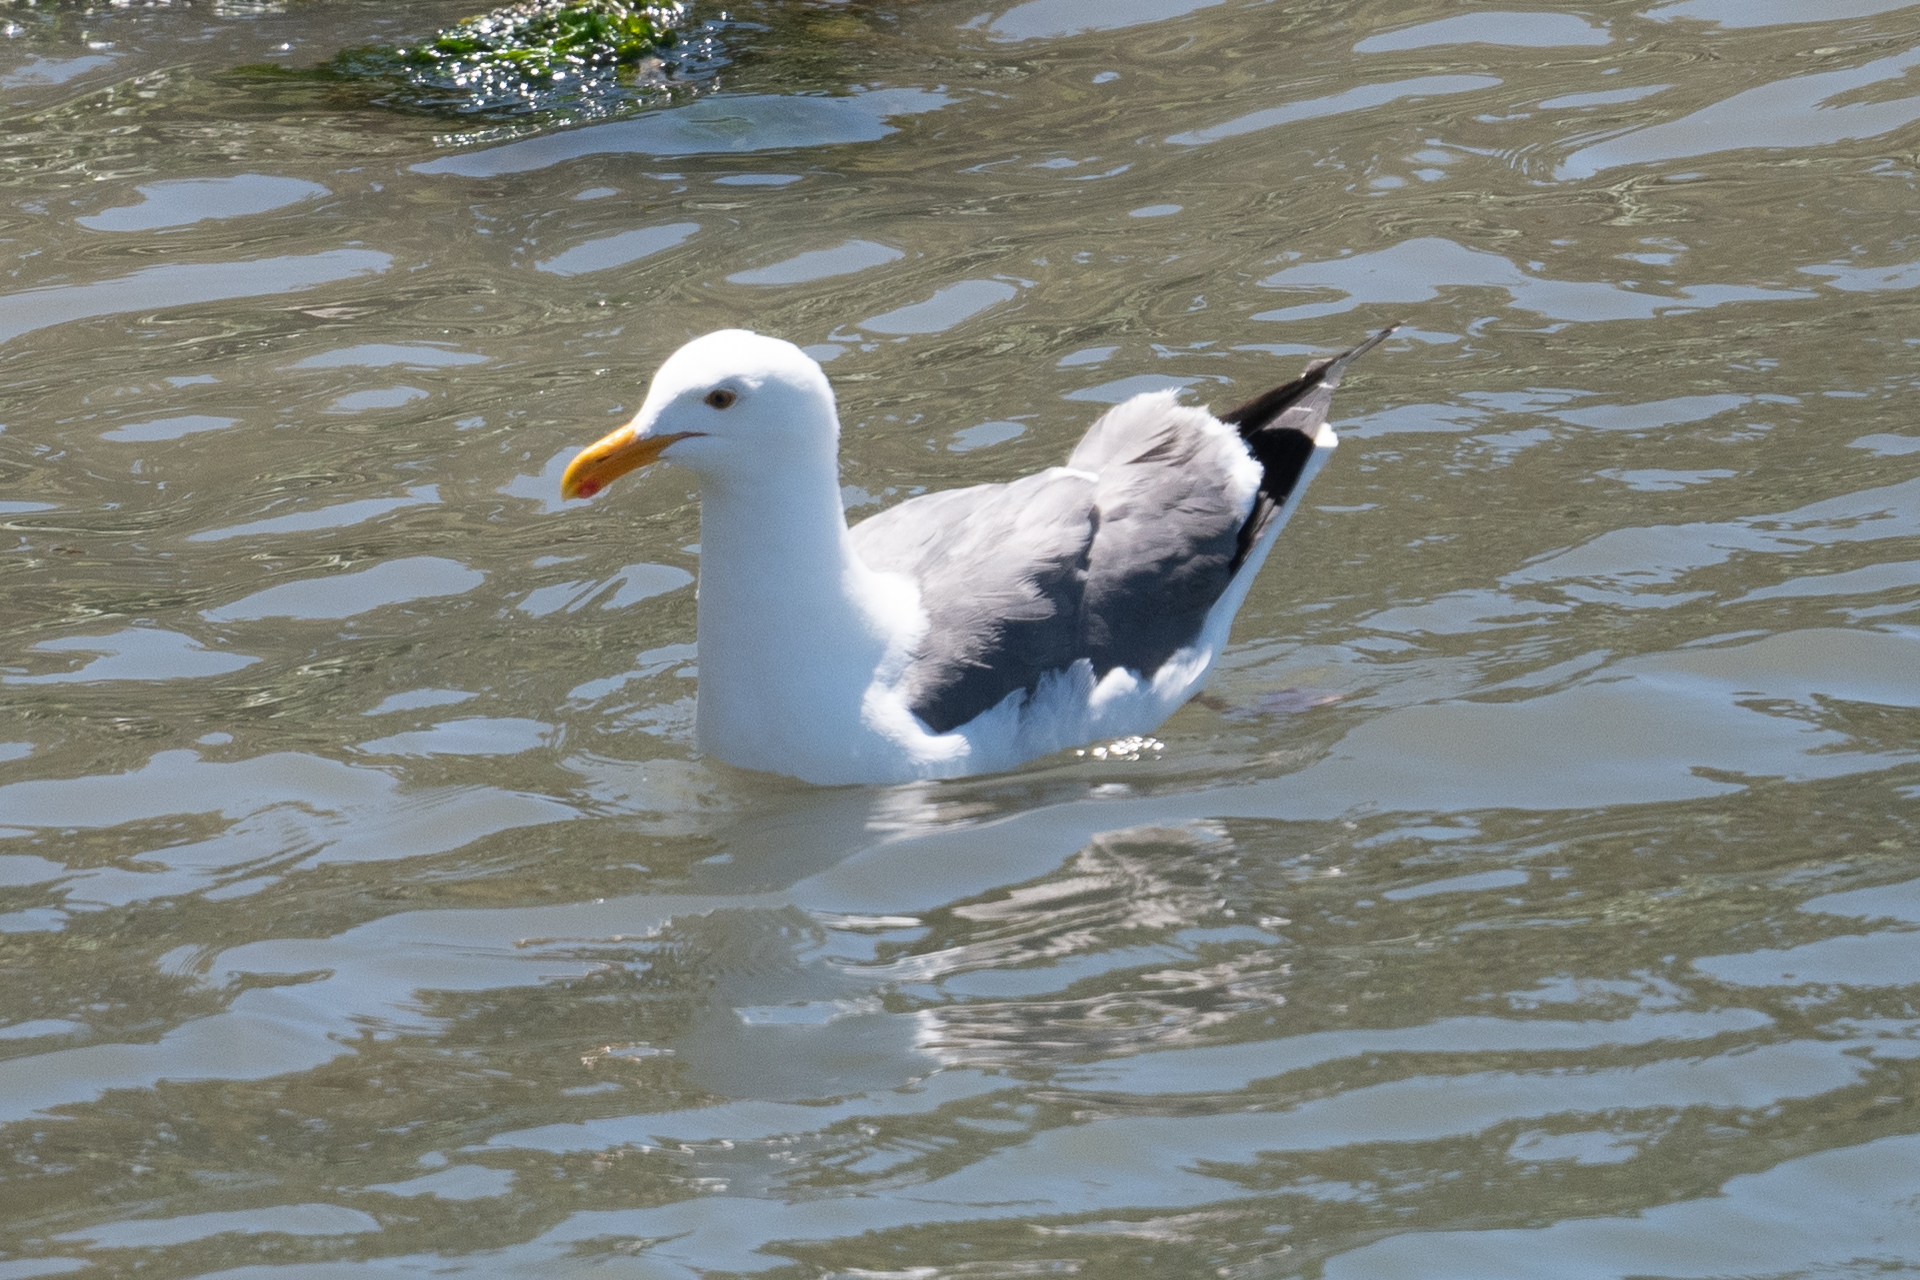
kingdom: Animalia
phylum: Chordata
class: Aves
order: Charadriiformes
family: Laridae
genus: Larus
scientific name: Larus occidentalis
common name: Western gull
